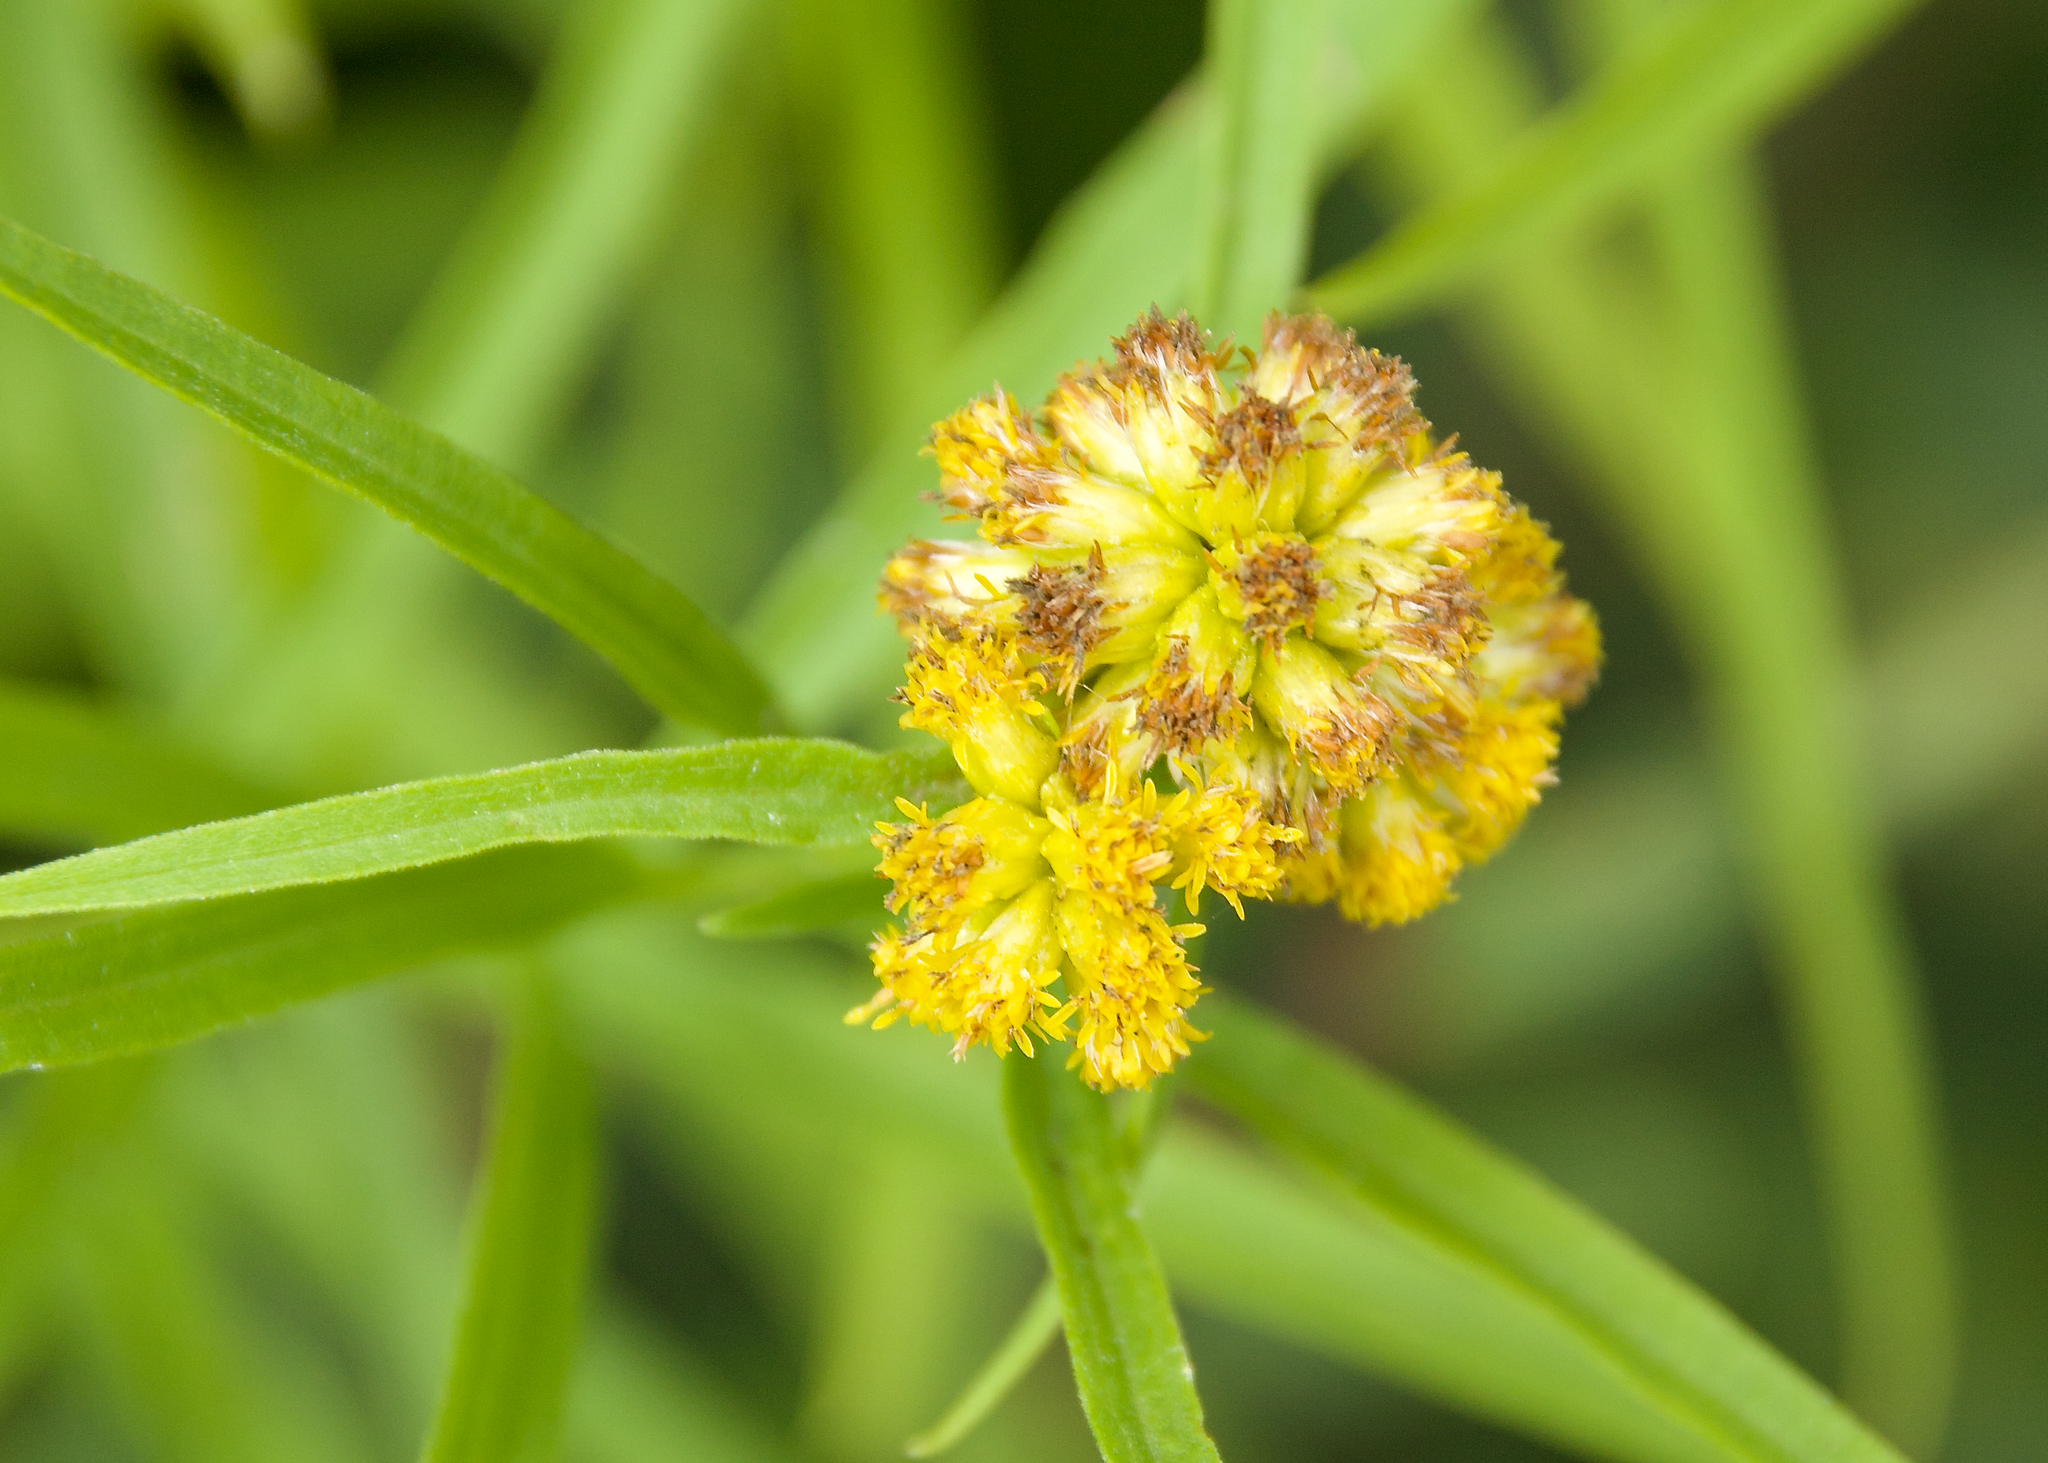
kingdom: Plantae
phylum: Tracheophyta
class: Magnoliopsida
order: Asterales
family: Asteraceae
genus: Euthamia
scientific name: Euthamia graminifolia
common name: Common goldentop
